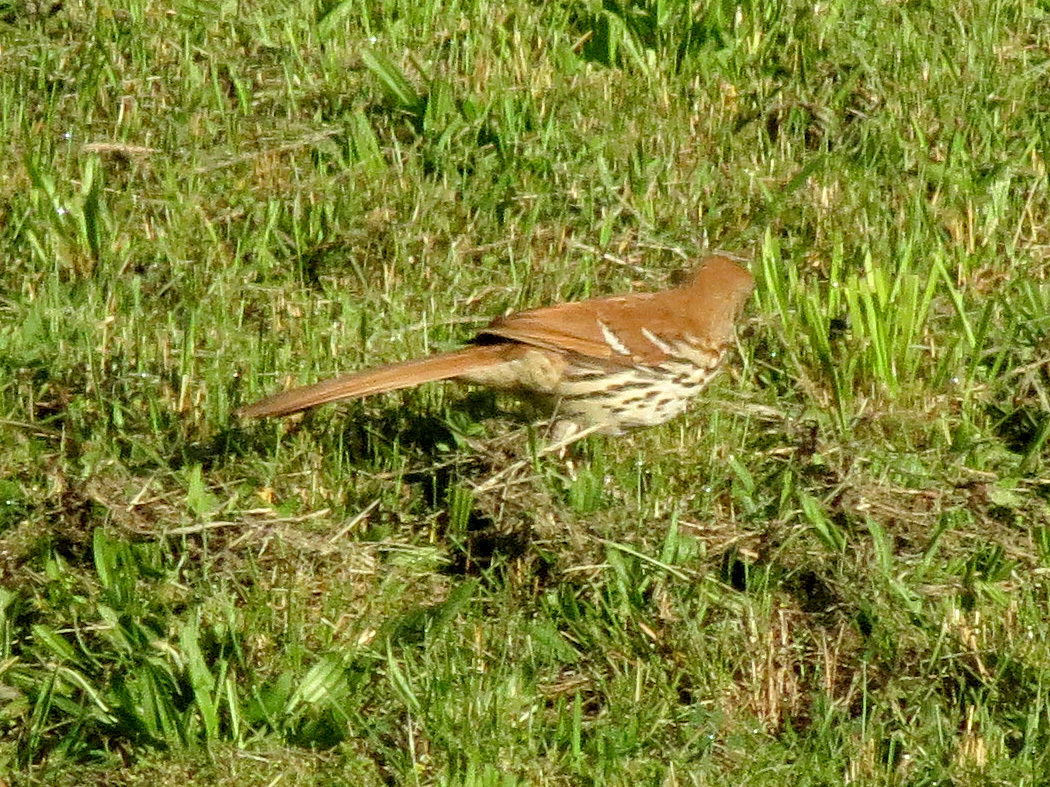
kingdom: Animalia
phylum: Chordata
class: Aves
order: Passeriformes
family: Mimidae
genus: Toxostoma
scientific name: Toxostoma rufum
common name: Brown thrasher
